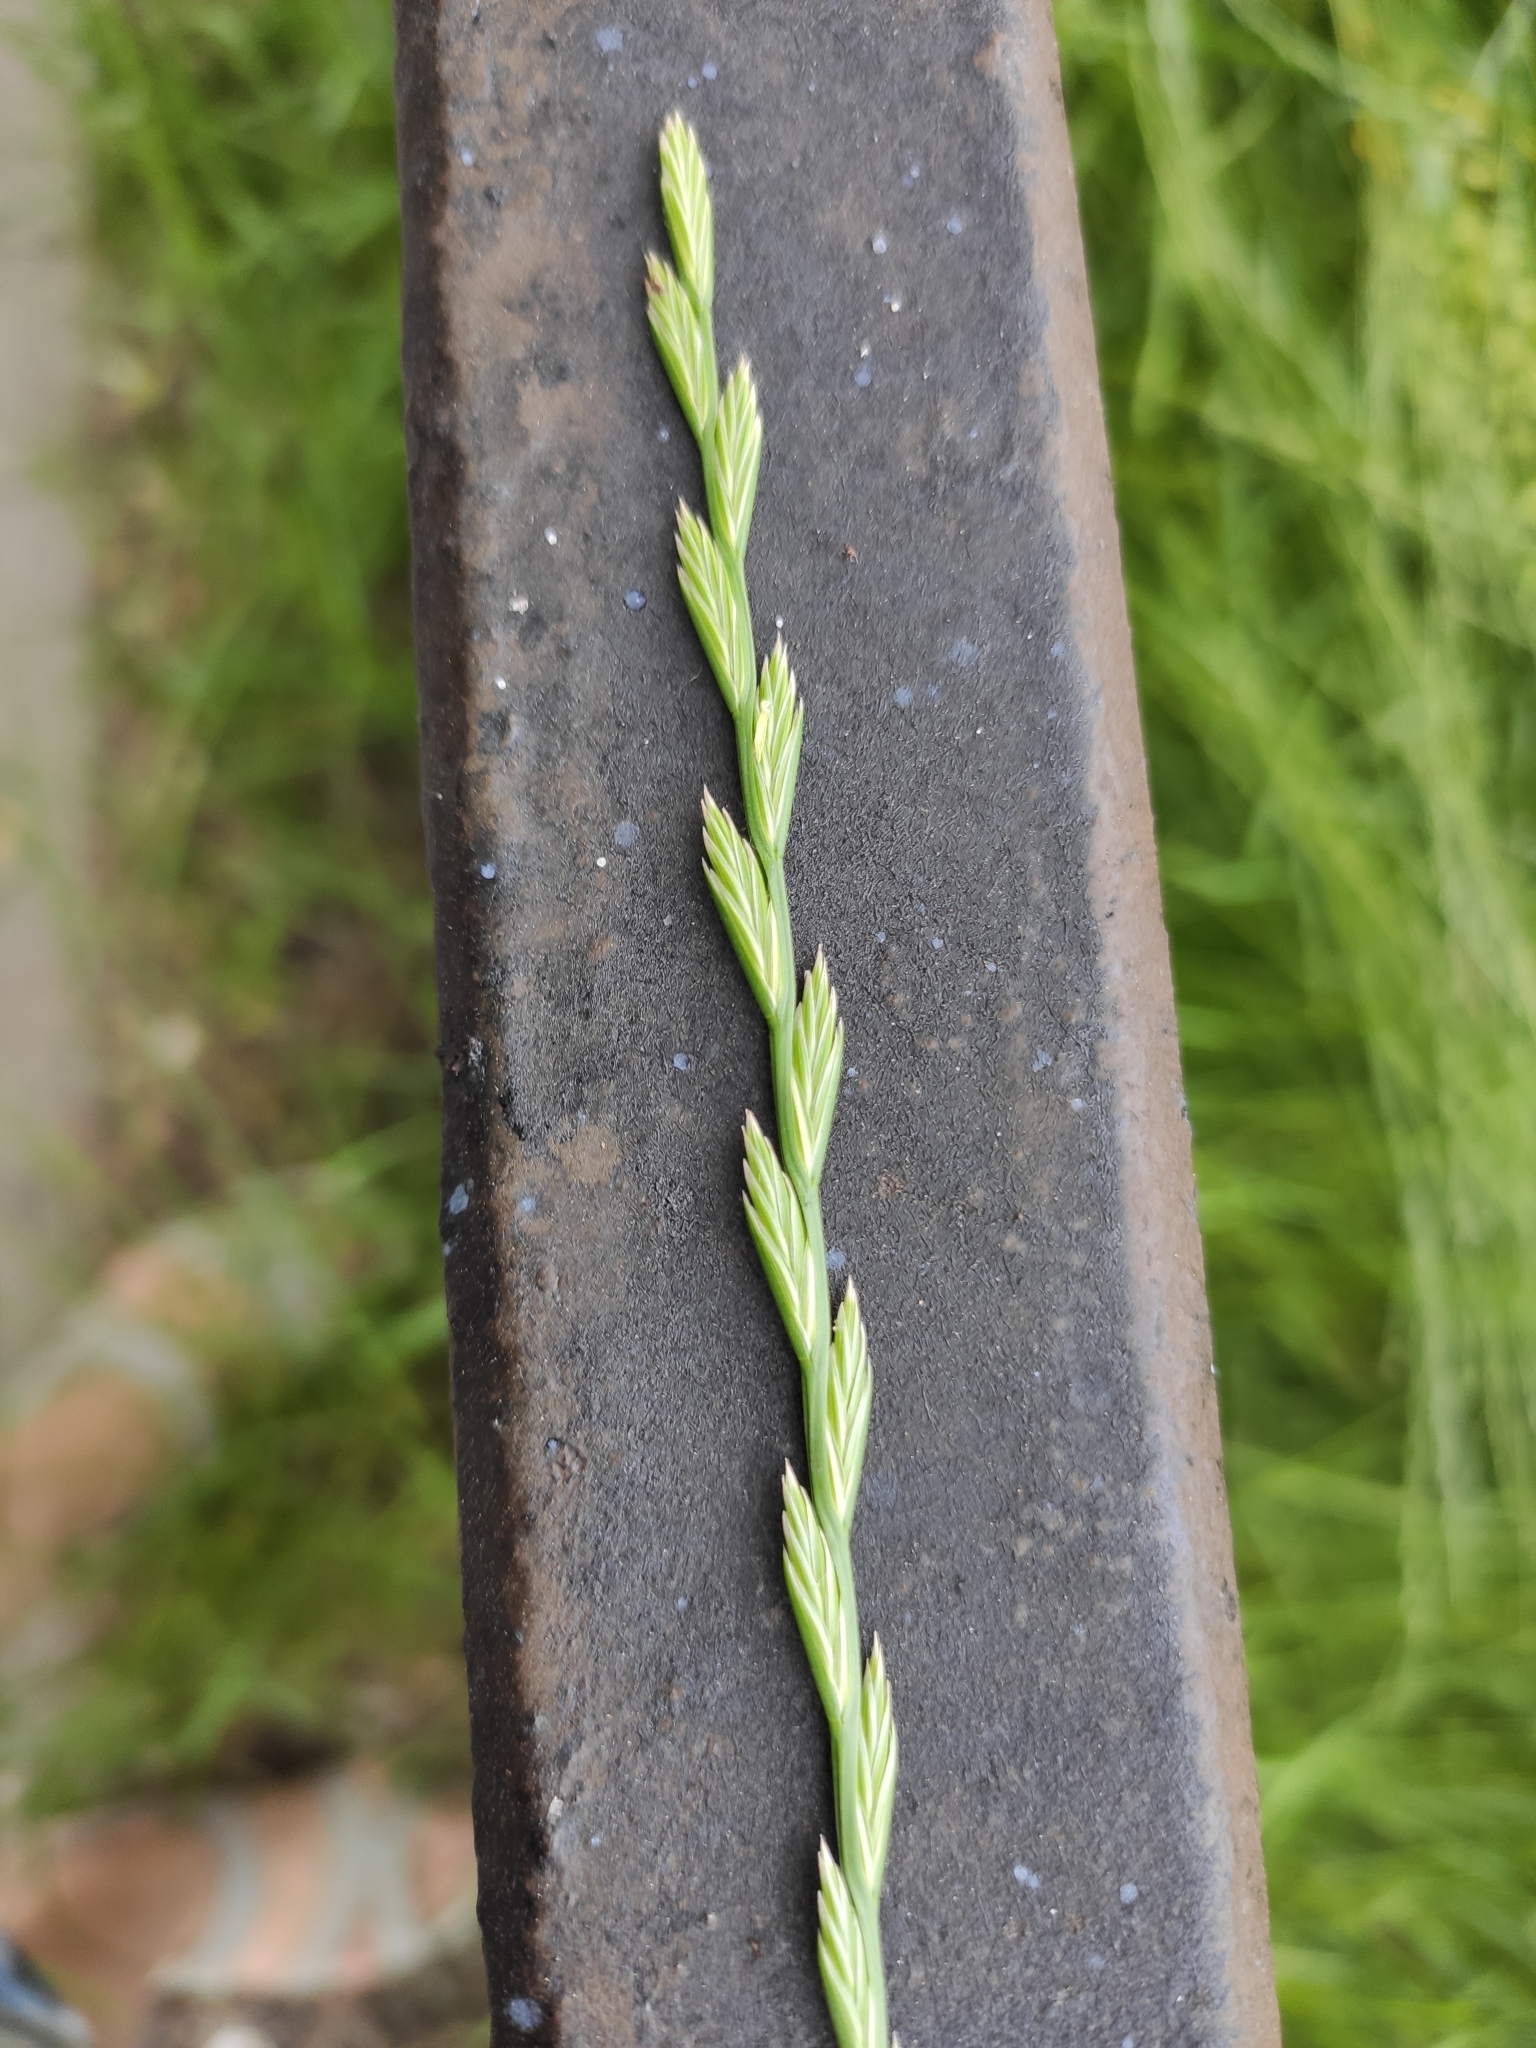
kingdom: Plantae
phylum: Tracheophyta
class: Liliopsida
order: Poales
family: Poaceae
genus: Lolium
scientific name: Lolium perenne
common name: Perennial ryegrass
